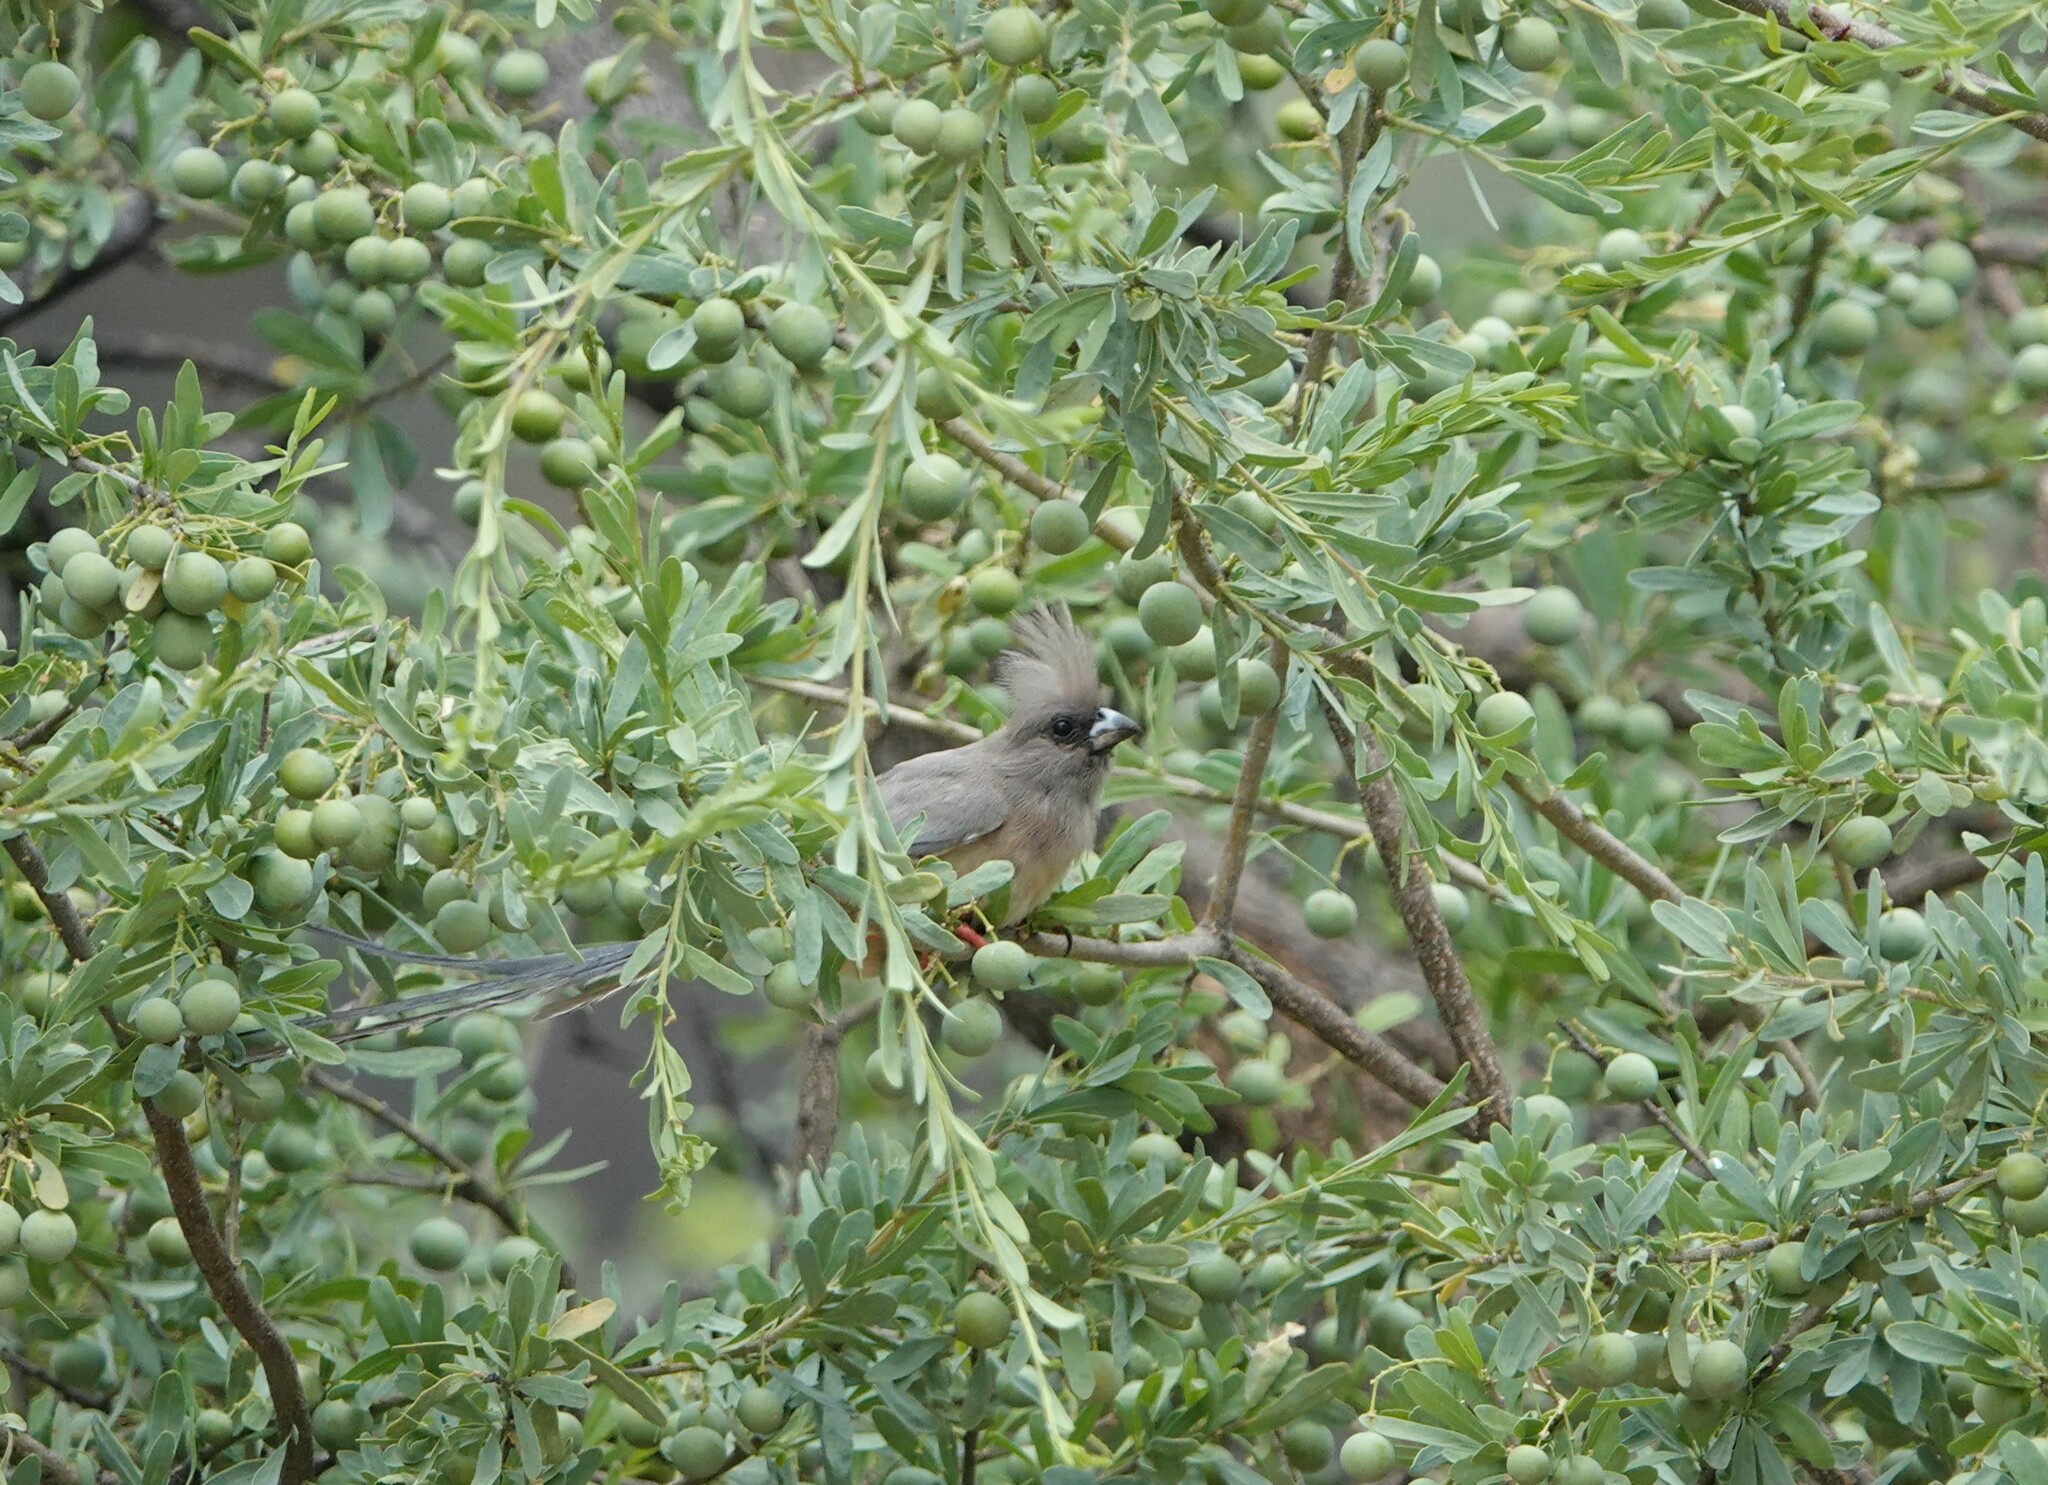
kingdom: Animalia
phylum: Chordata
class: Aves
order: Coliiformes
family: Coliidae
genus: Colius
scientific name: Colius colius
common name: White-backed mousebird
